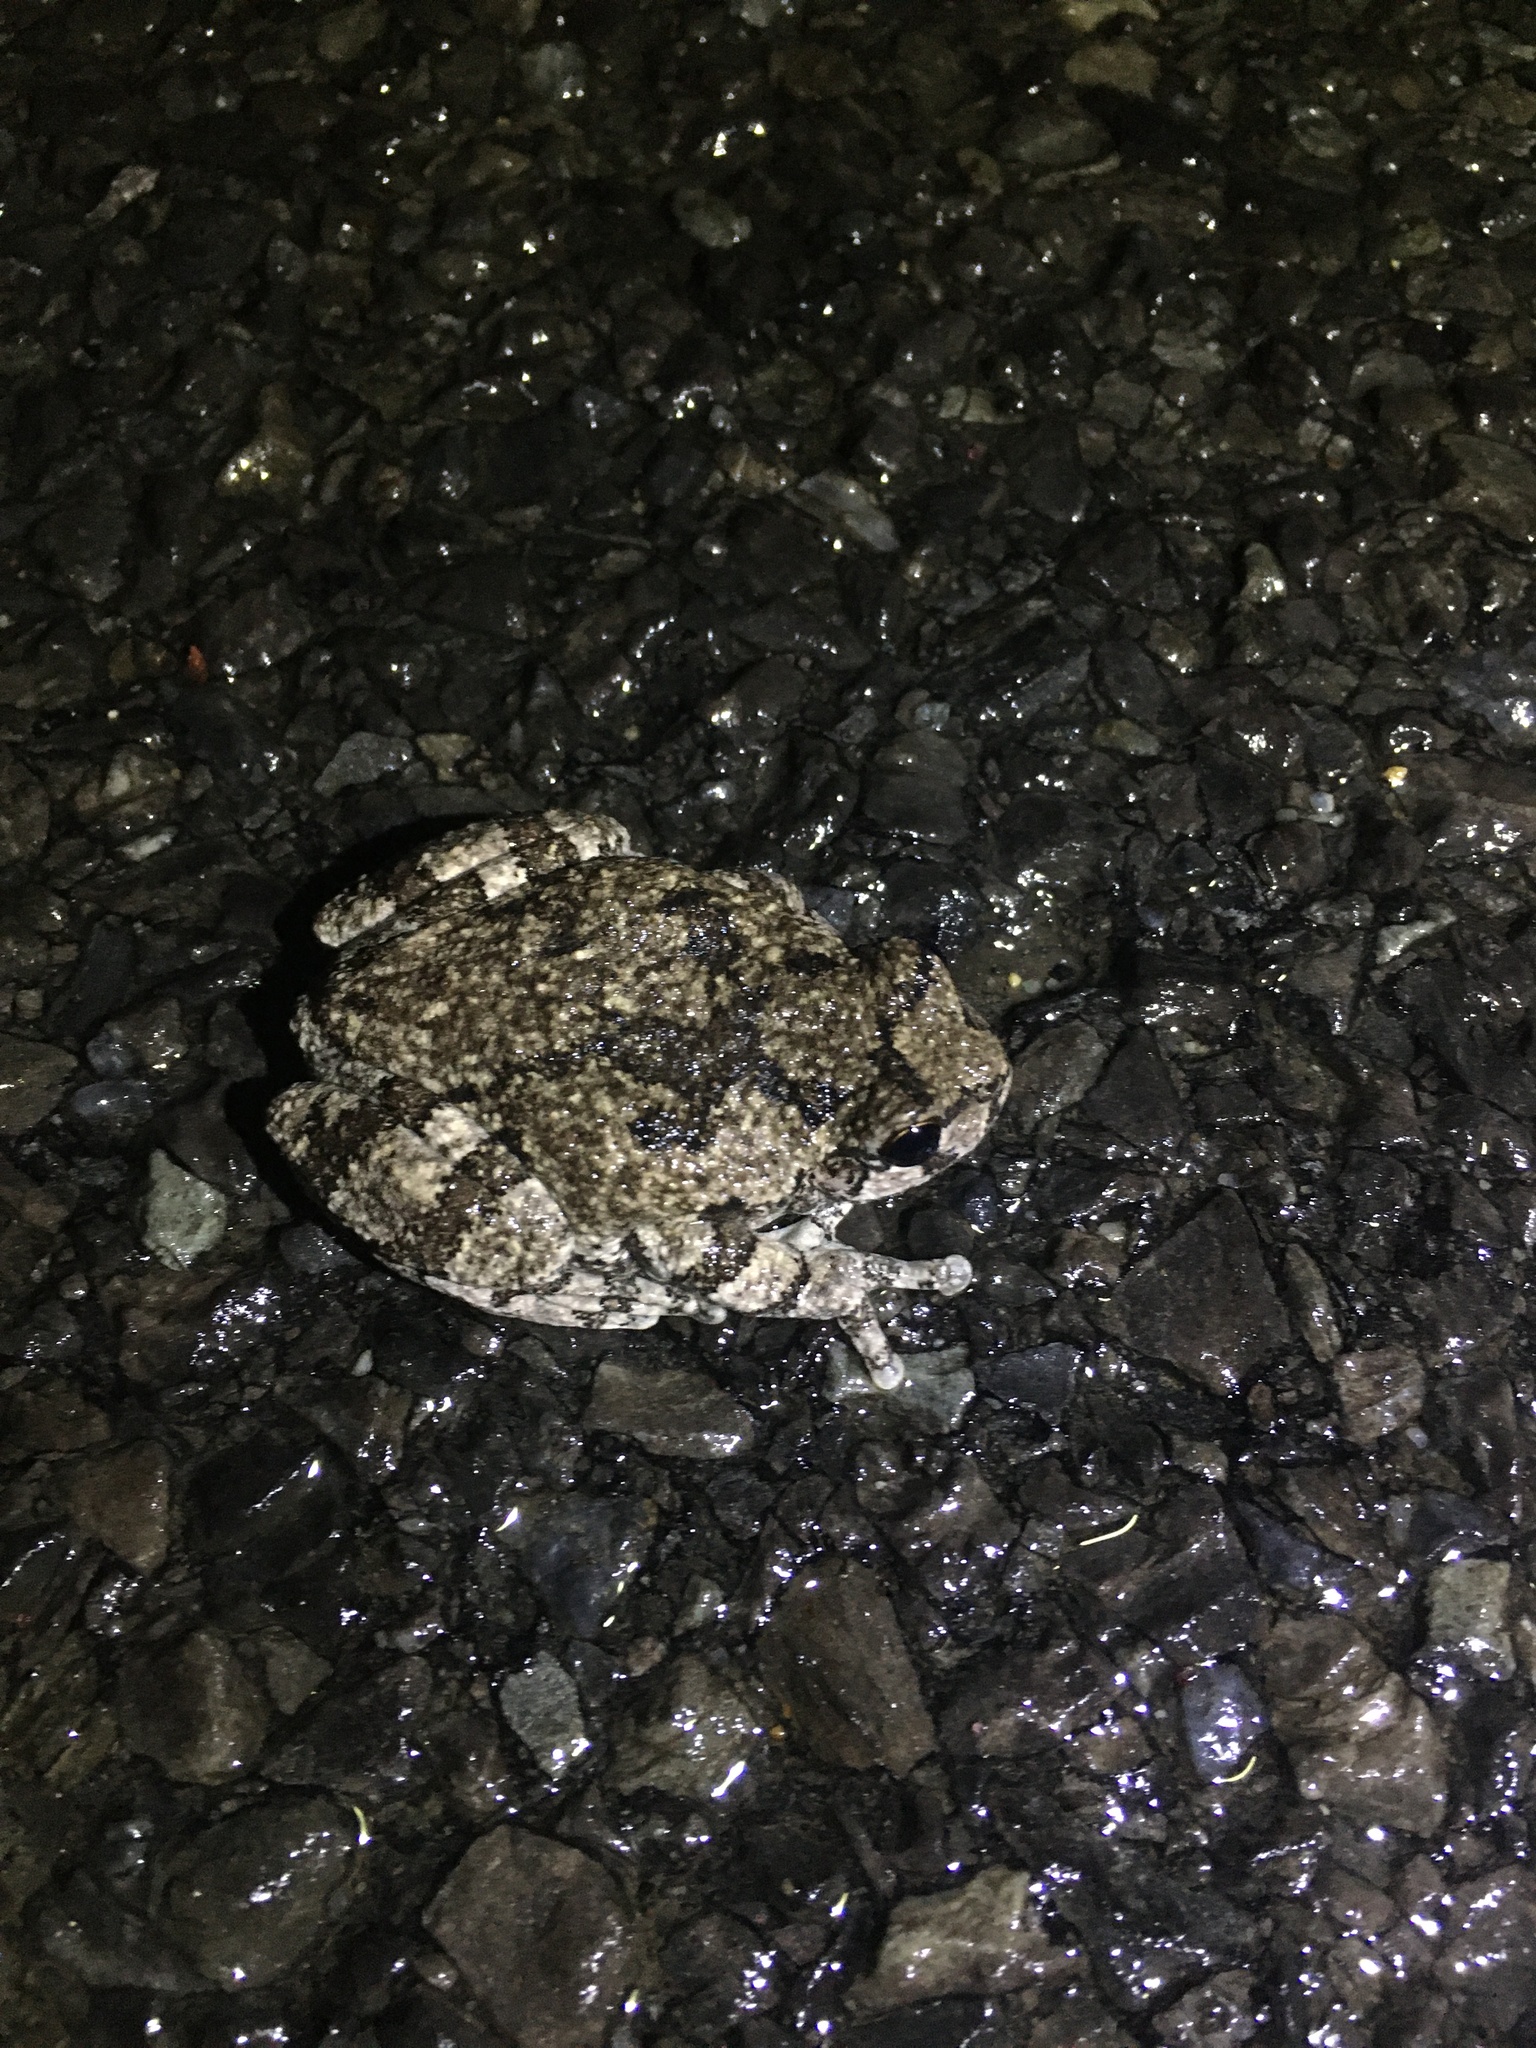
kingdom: Animalia
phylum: Chordata
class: Amphibia
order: Anura
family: Hylidae
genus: Dryophytes
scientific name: Dryophytes versicolor
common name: Gray treefrog
